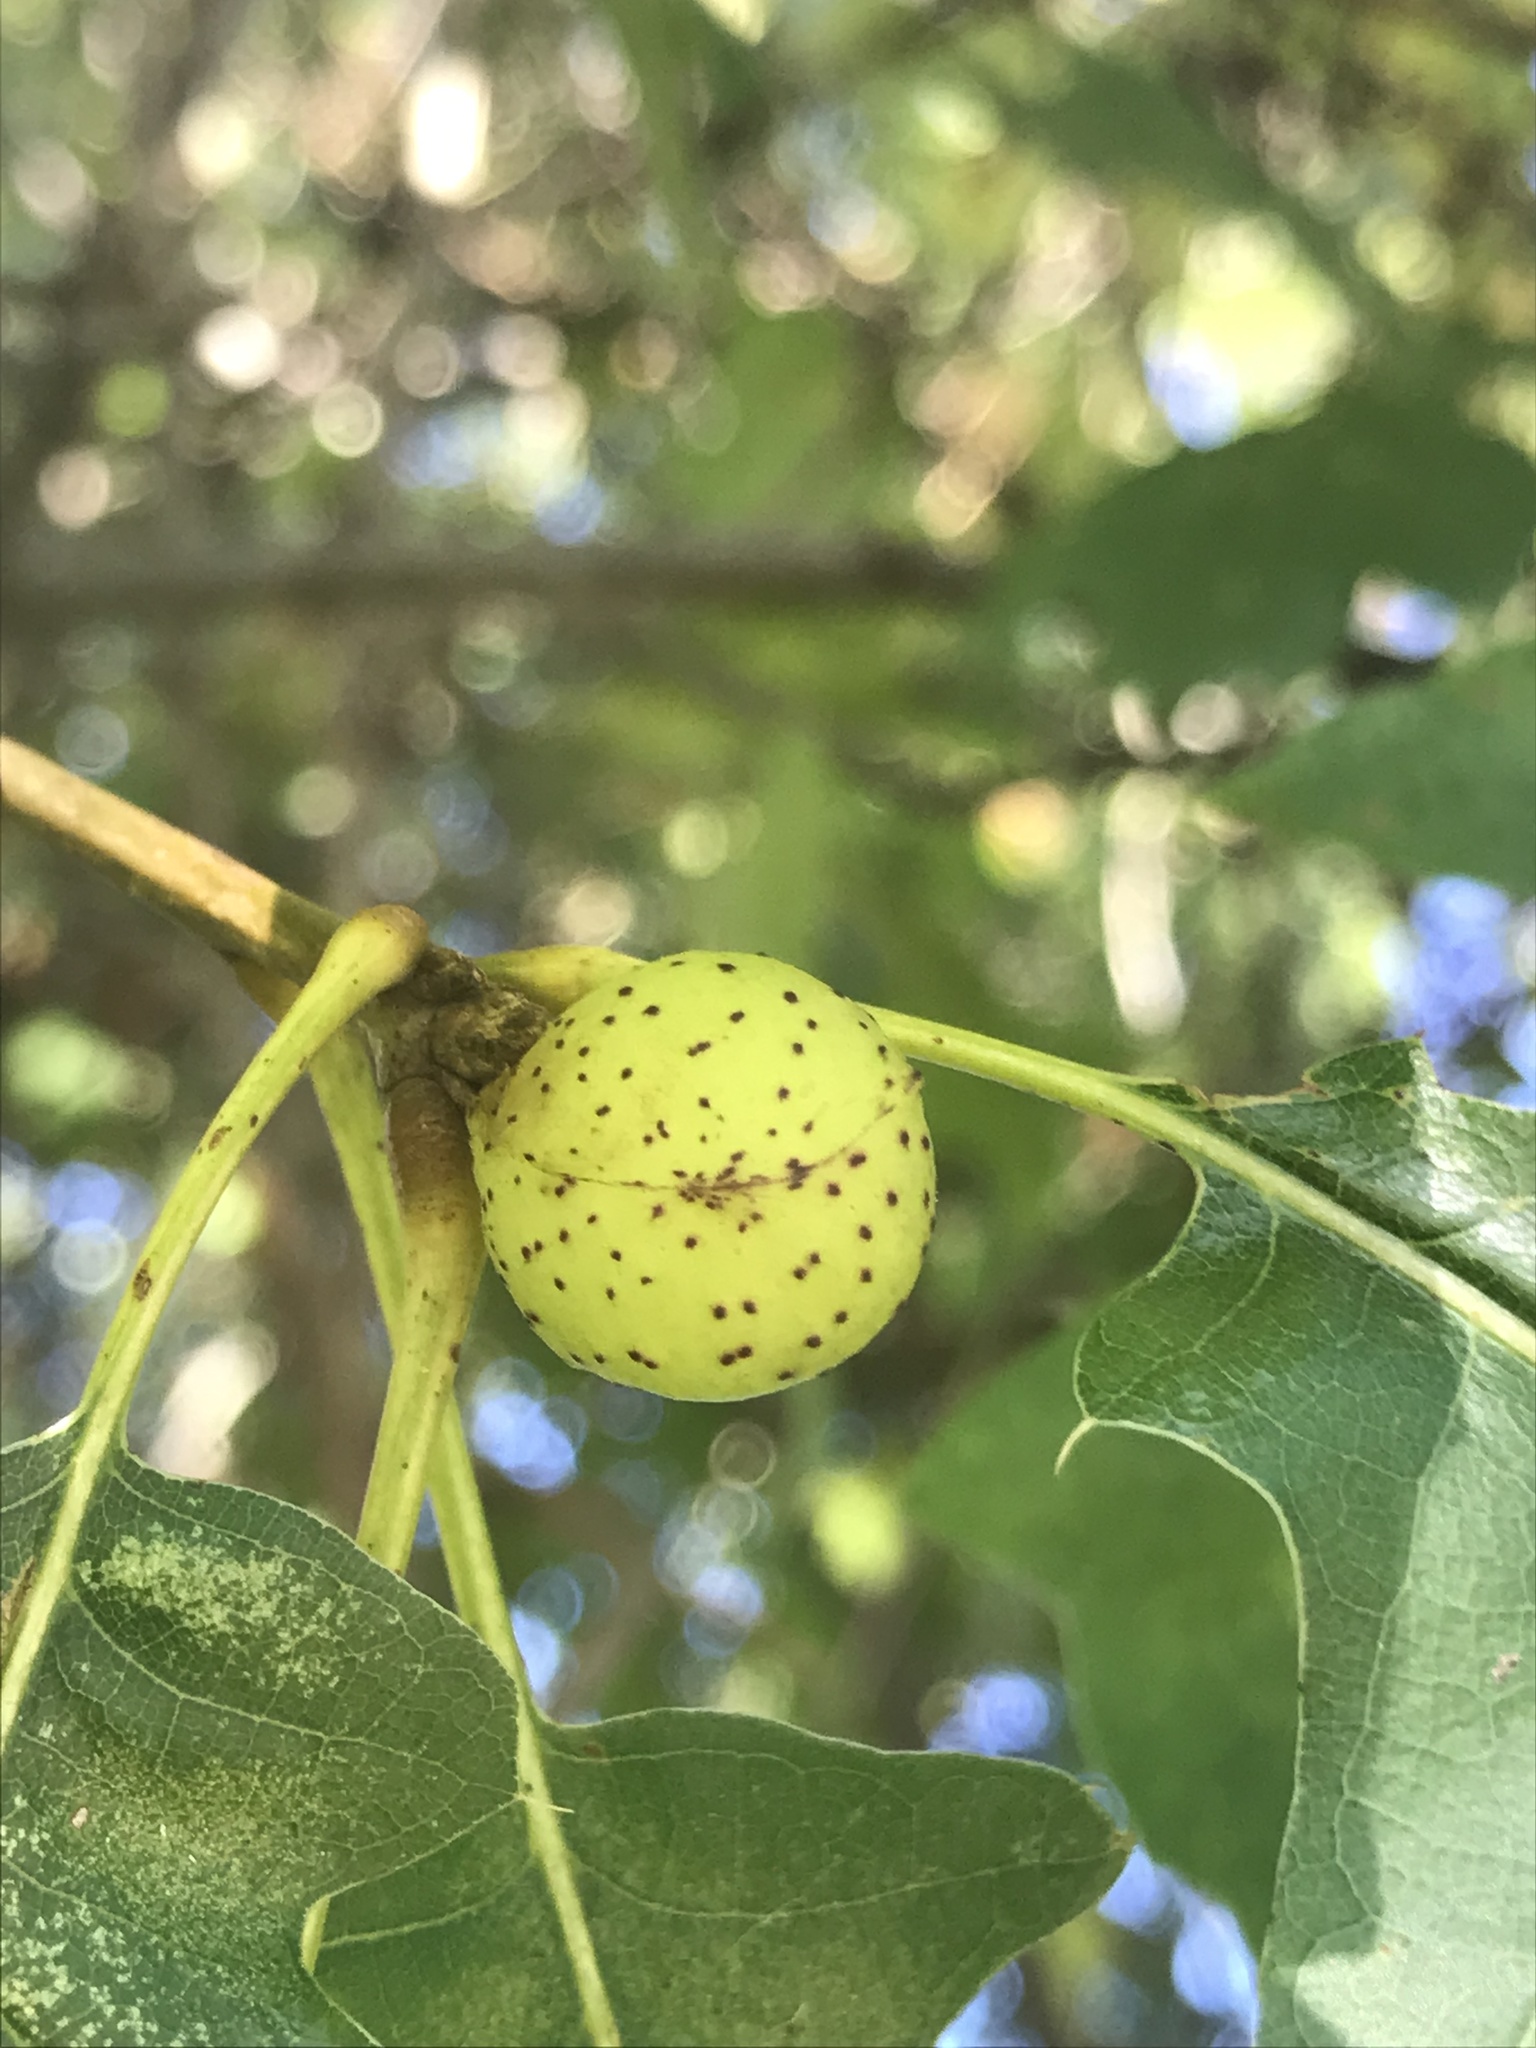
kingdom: Animalia
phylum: Arthropoda
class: Insecta
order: Hymenoptera
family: Cynipidae
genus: Amphibolips
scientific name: Amphibolips
